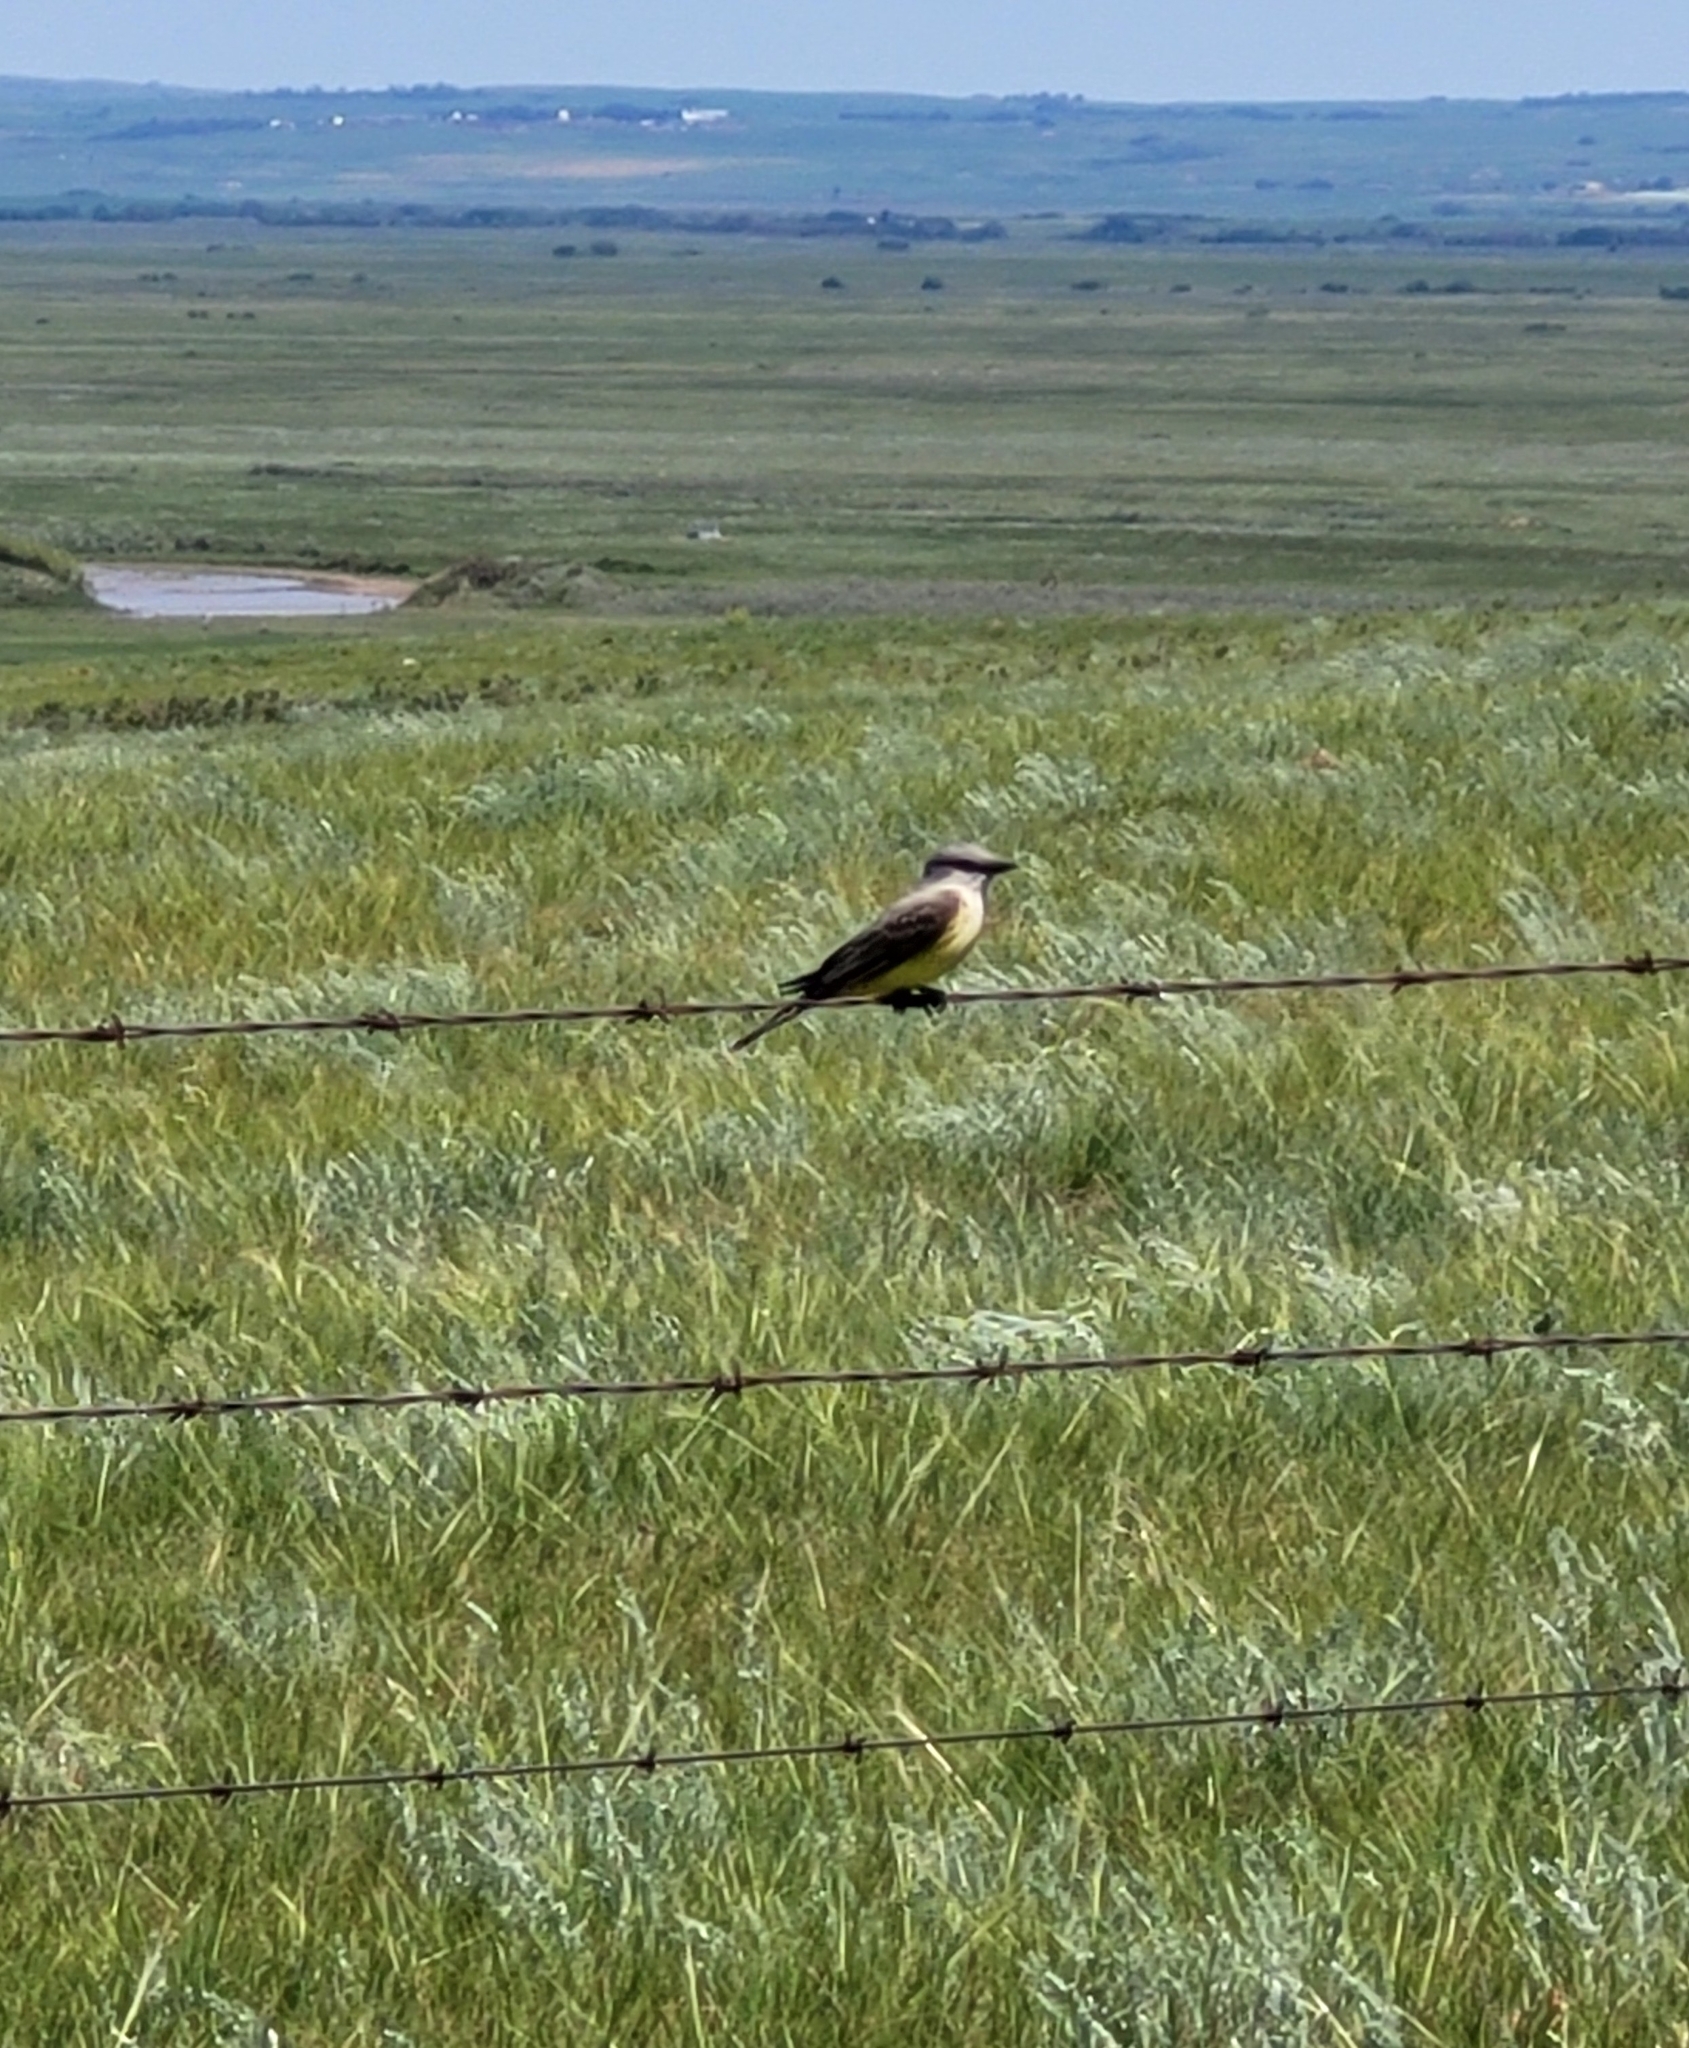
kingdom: Animalia
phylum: Chordata
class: Aves
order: Passeriformes
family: Tyrannidae
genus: Tyrannus
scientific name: Tyrannus verticalis
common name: Western kingbird
